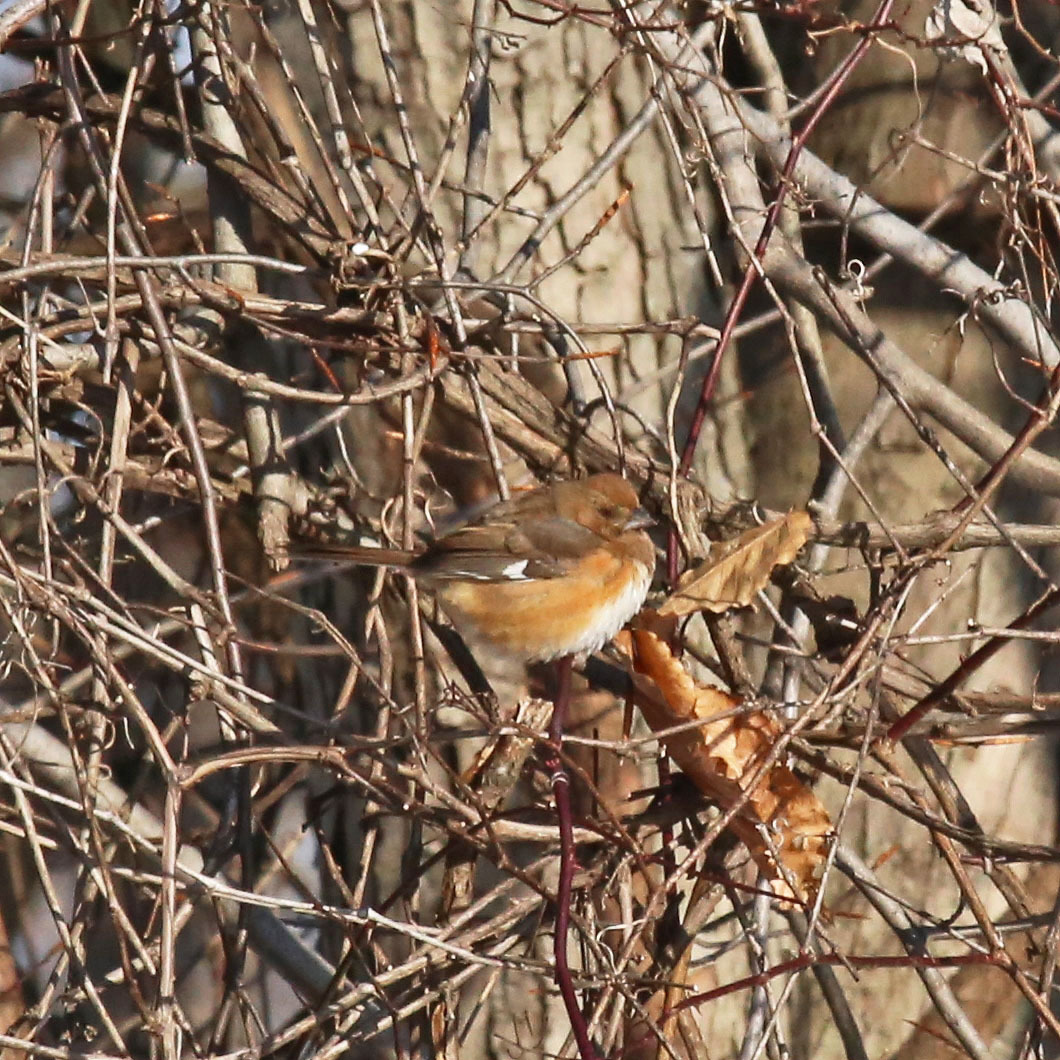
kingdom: Animalia
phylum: Chordata
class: Aves
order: Passeriformes
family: Passerellidae
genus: Pipilo
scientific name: Pipilo erythrophthalmus
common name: Eastern towhee
